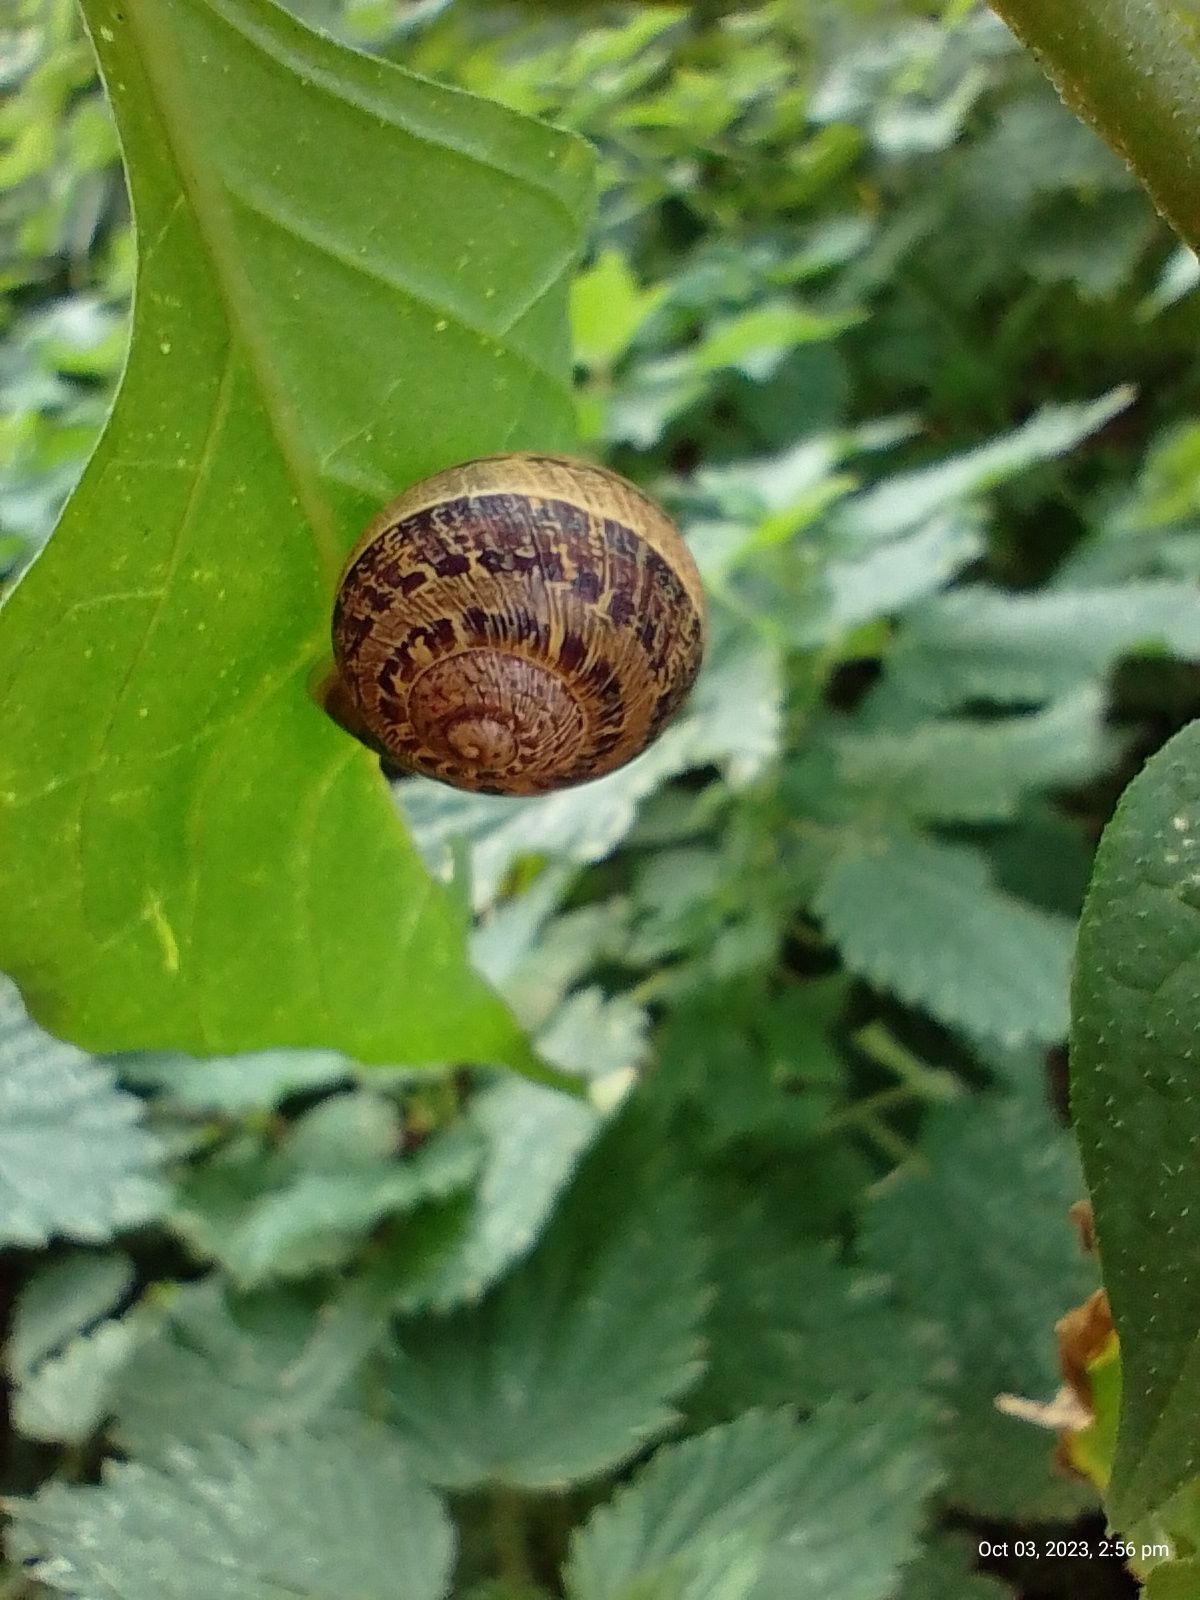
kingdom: Animalia
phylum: Mollusca
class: Gastropoda
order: Stylommatophora
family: Helicidae
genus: Cornu
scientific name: Cornu aspersum
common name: Brown garden snail
